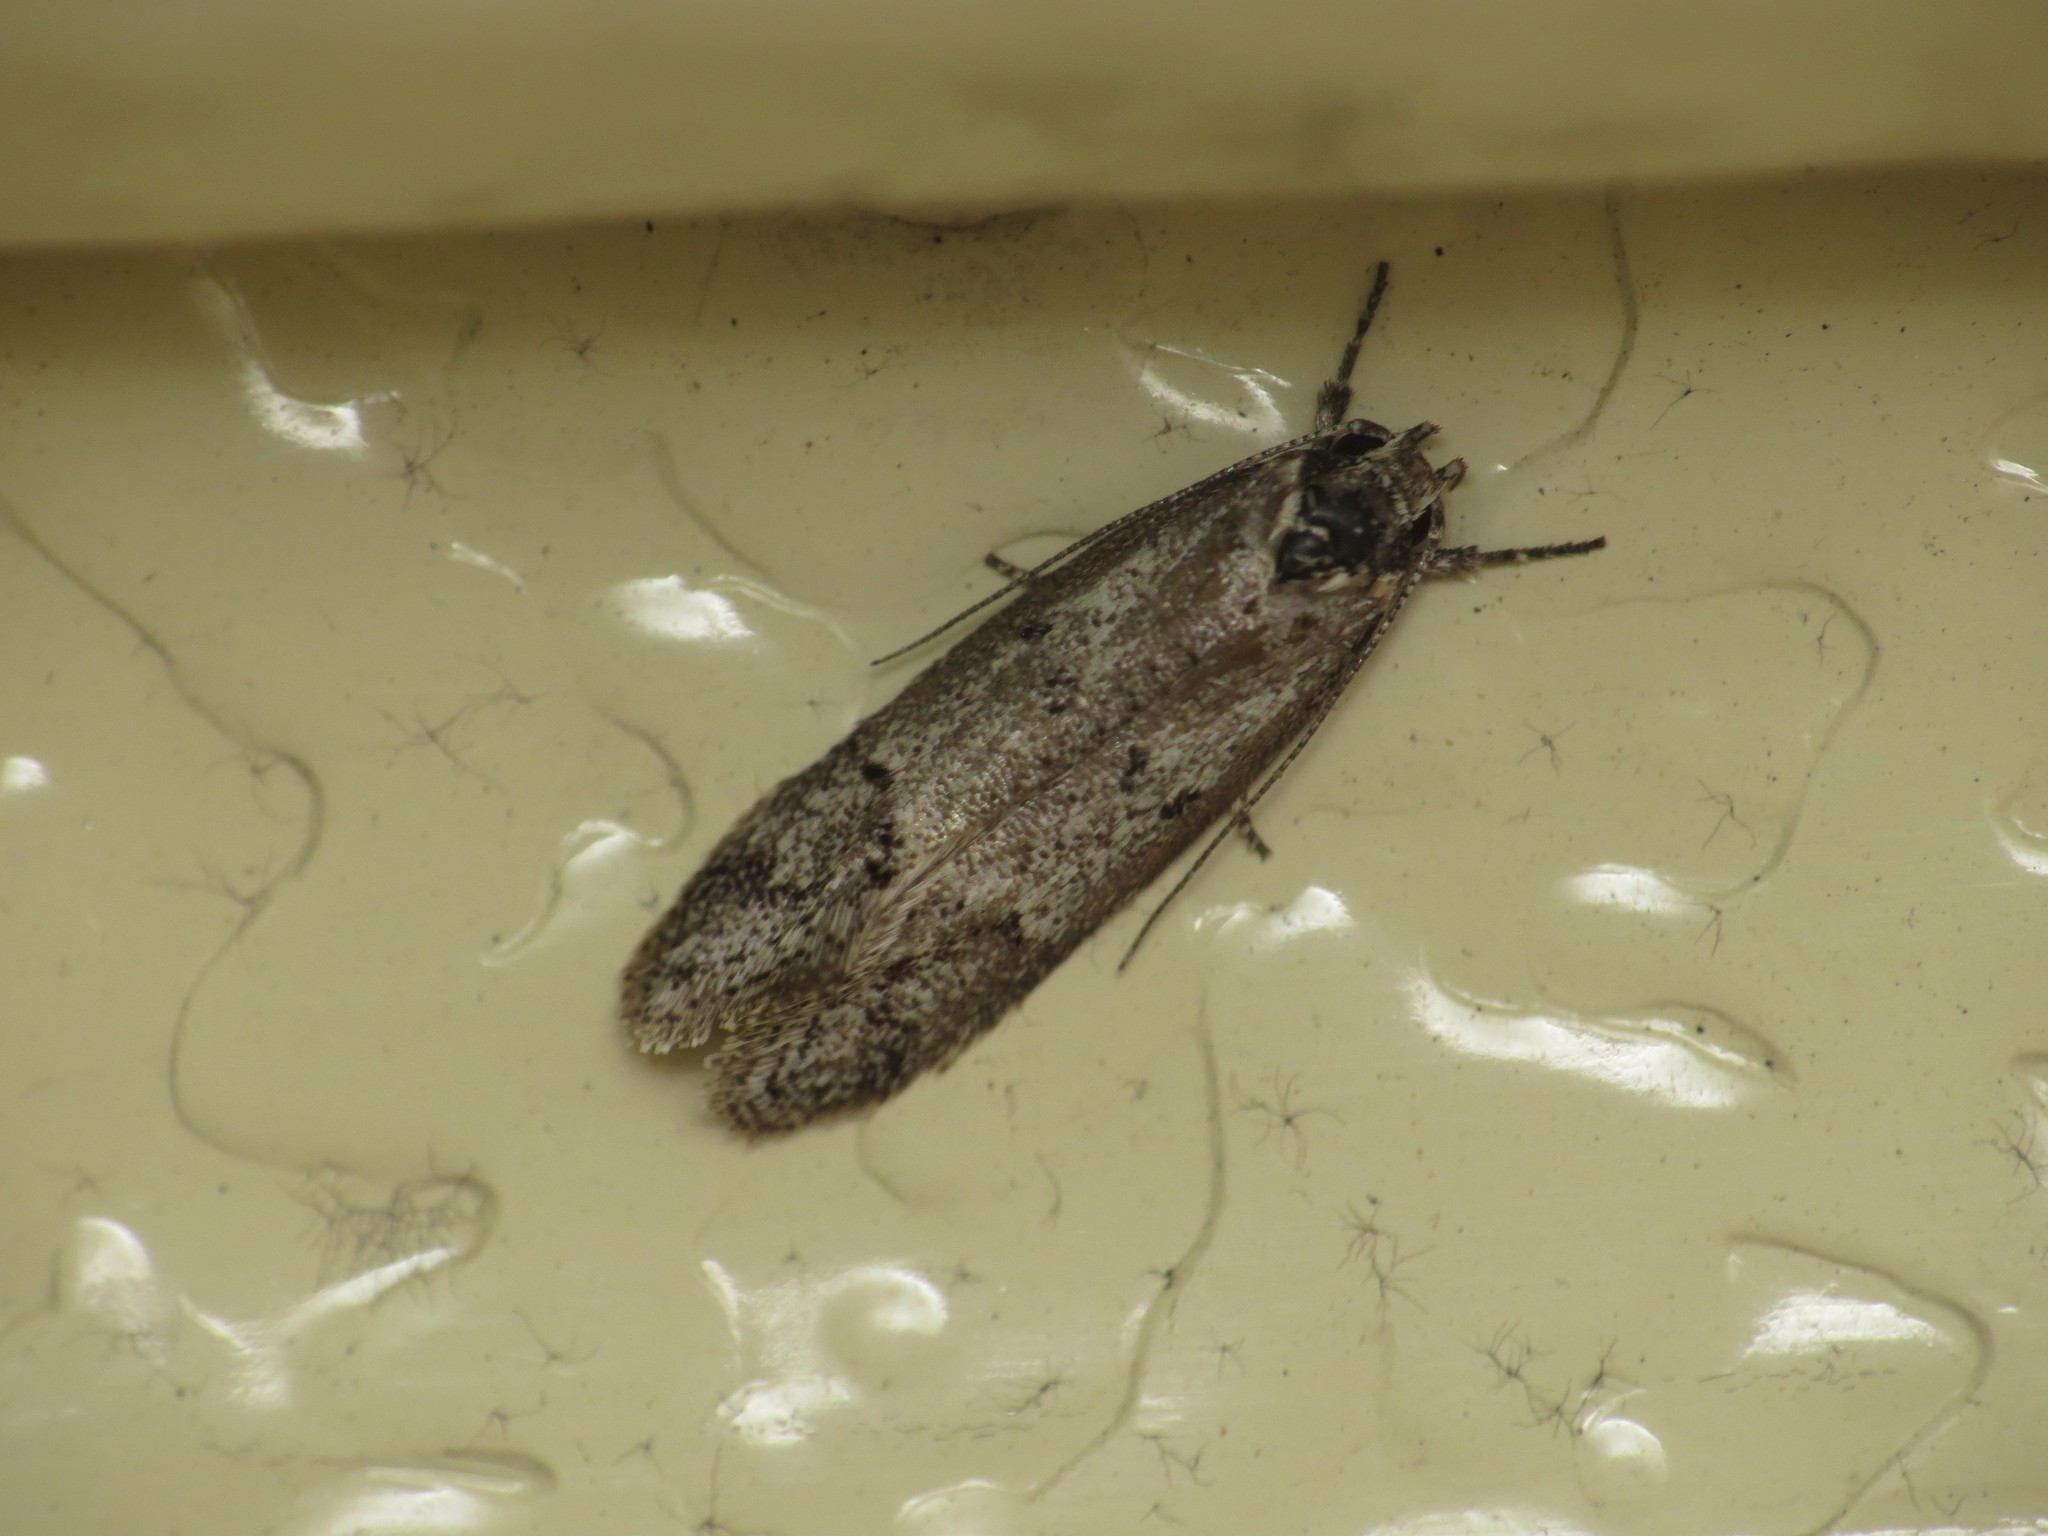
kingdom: Animalia
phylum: Arthropoda
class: Insecta
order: Lepidoptera
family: Oecophoridae
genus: Heterozyga
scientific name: Heterozyga coppatias
